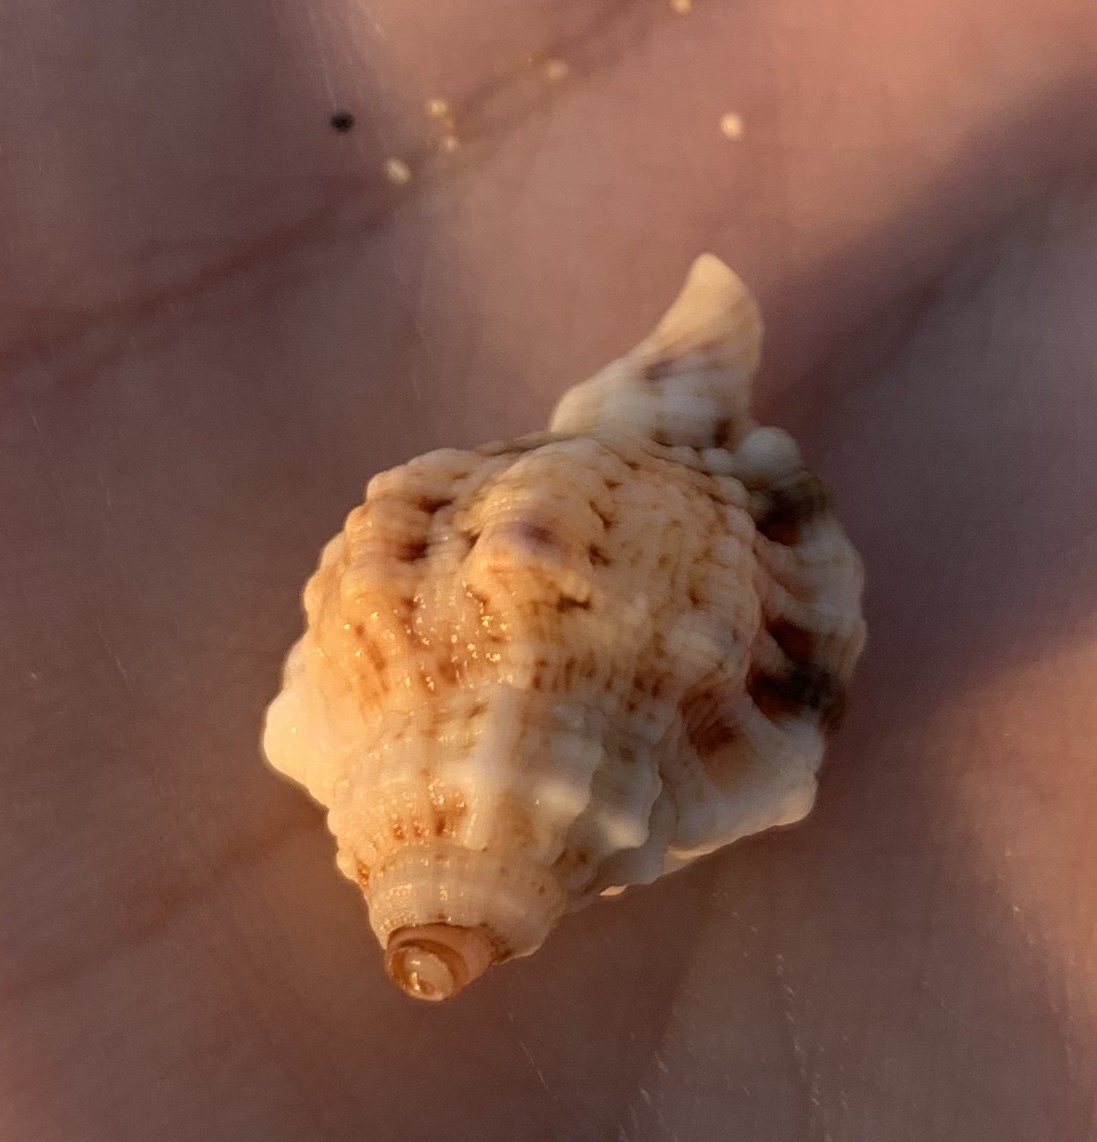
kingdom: Animalia
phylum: Mollusca
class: Gastropoda
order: Littorinimorpha
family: Cymatiidae
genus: Gutturnium
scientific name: Gutturnium muricinum
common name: Knobbed triton
